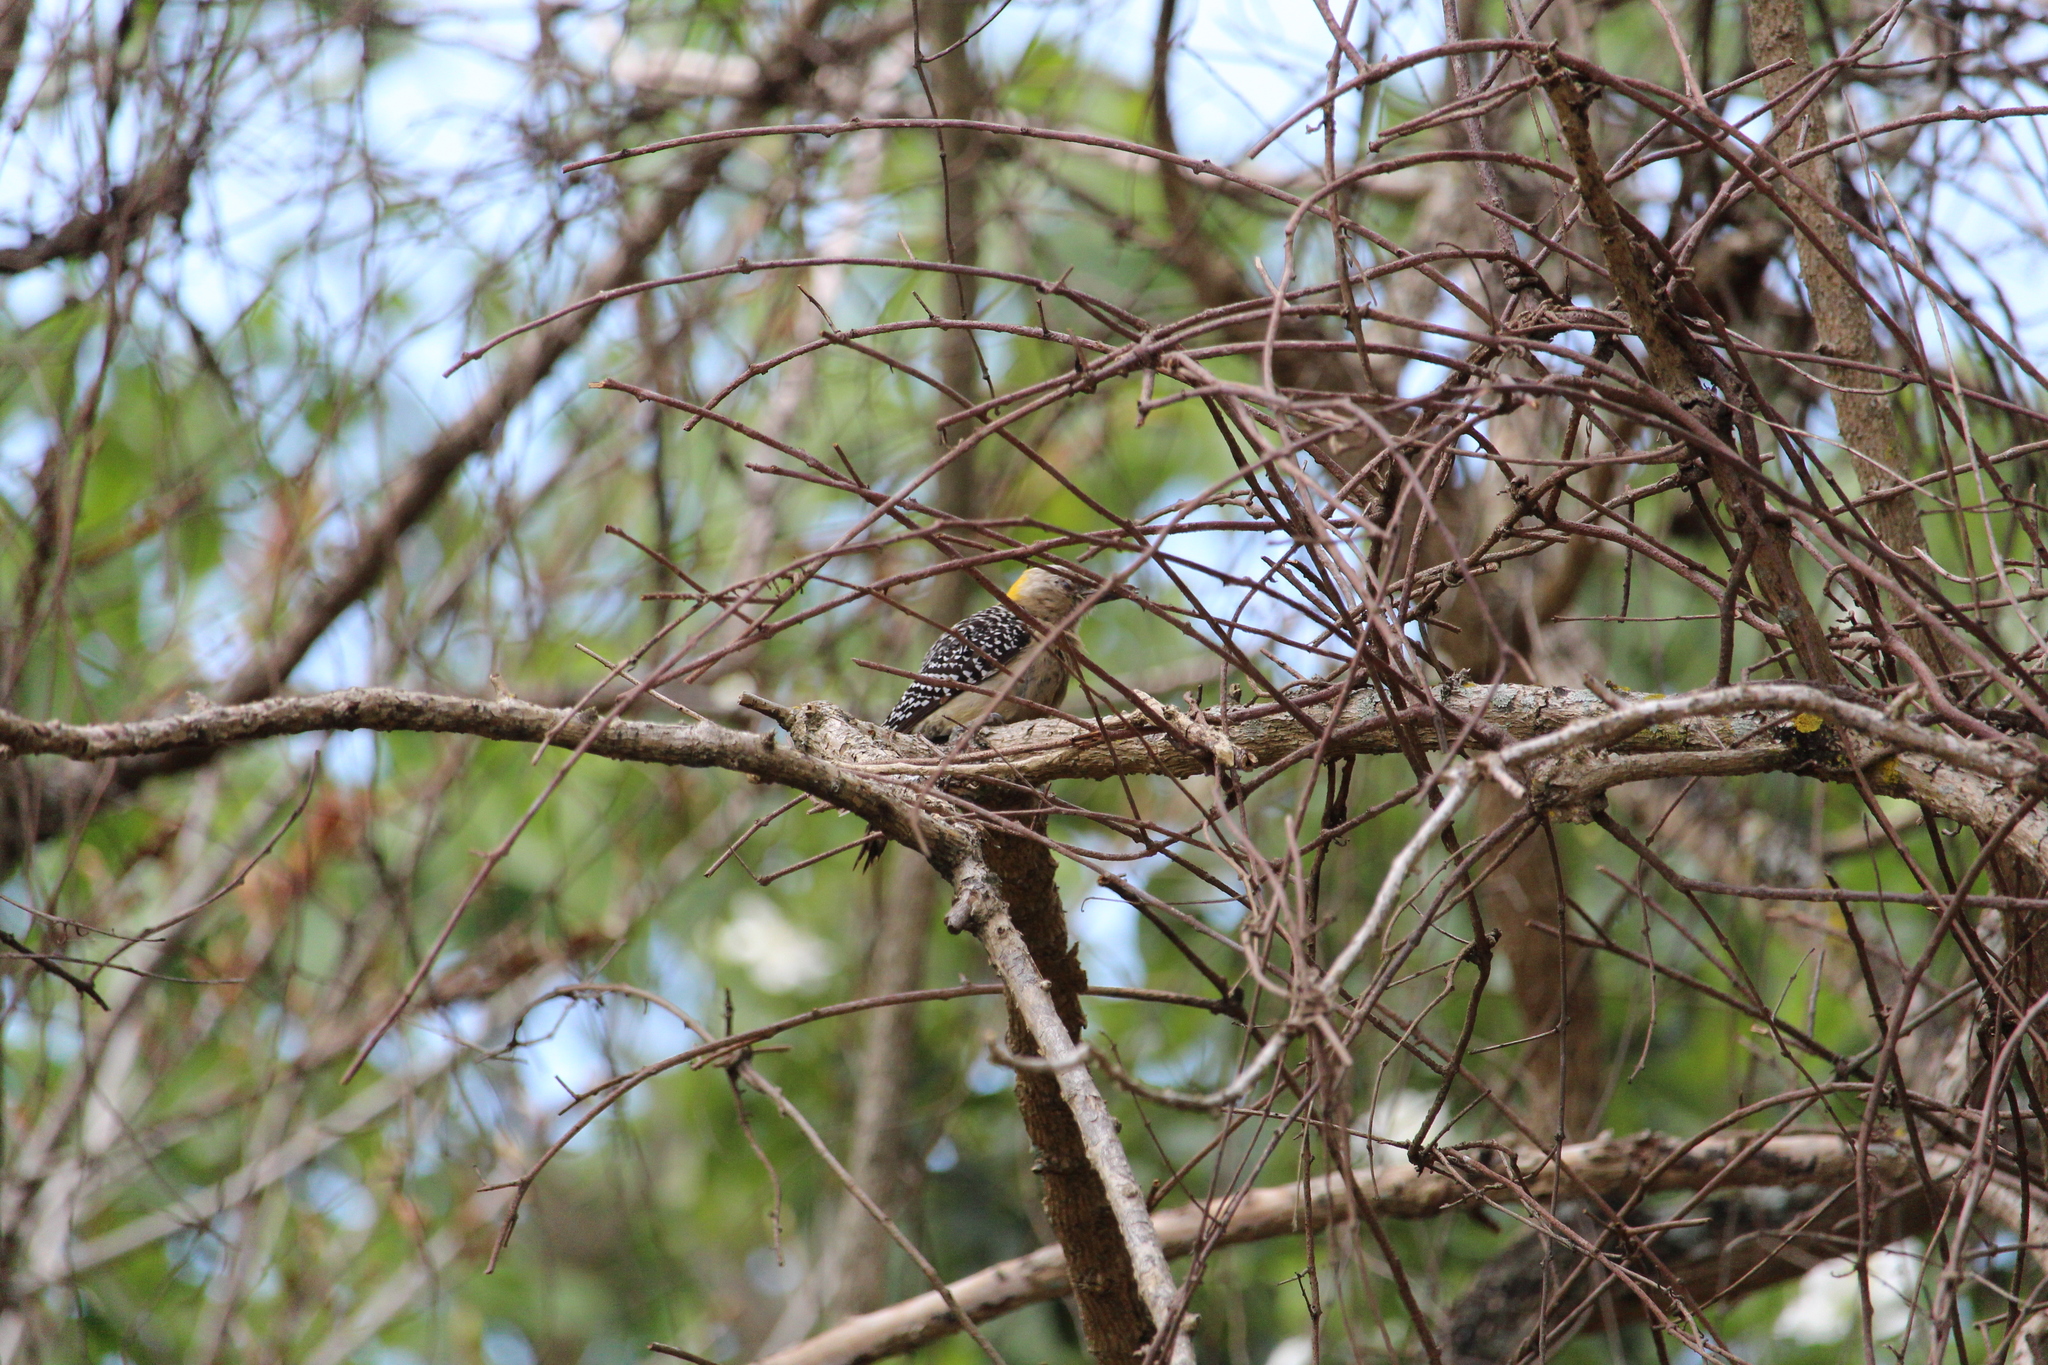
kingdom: Animalia
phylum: Chordata
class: Aves
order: Piciformes
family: Picidae
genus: Melanerpes
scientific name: Melanerpes hoffmannii
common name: Hoffmann's woodpecker
